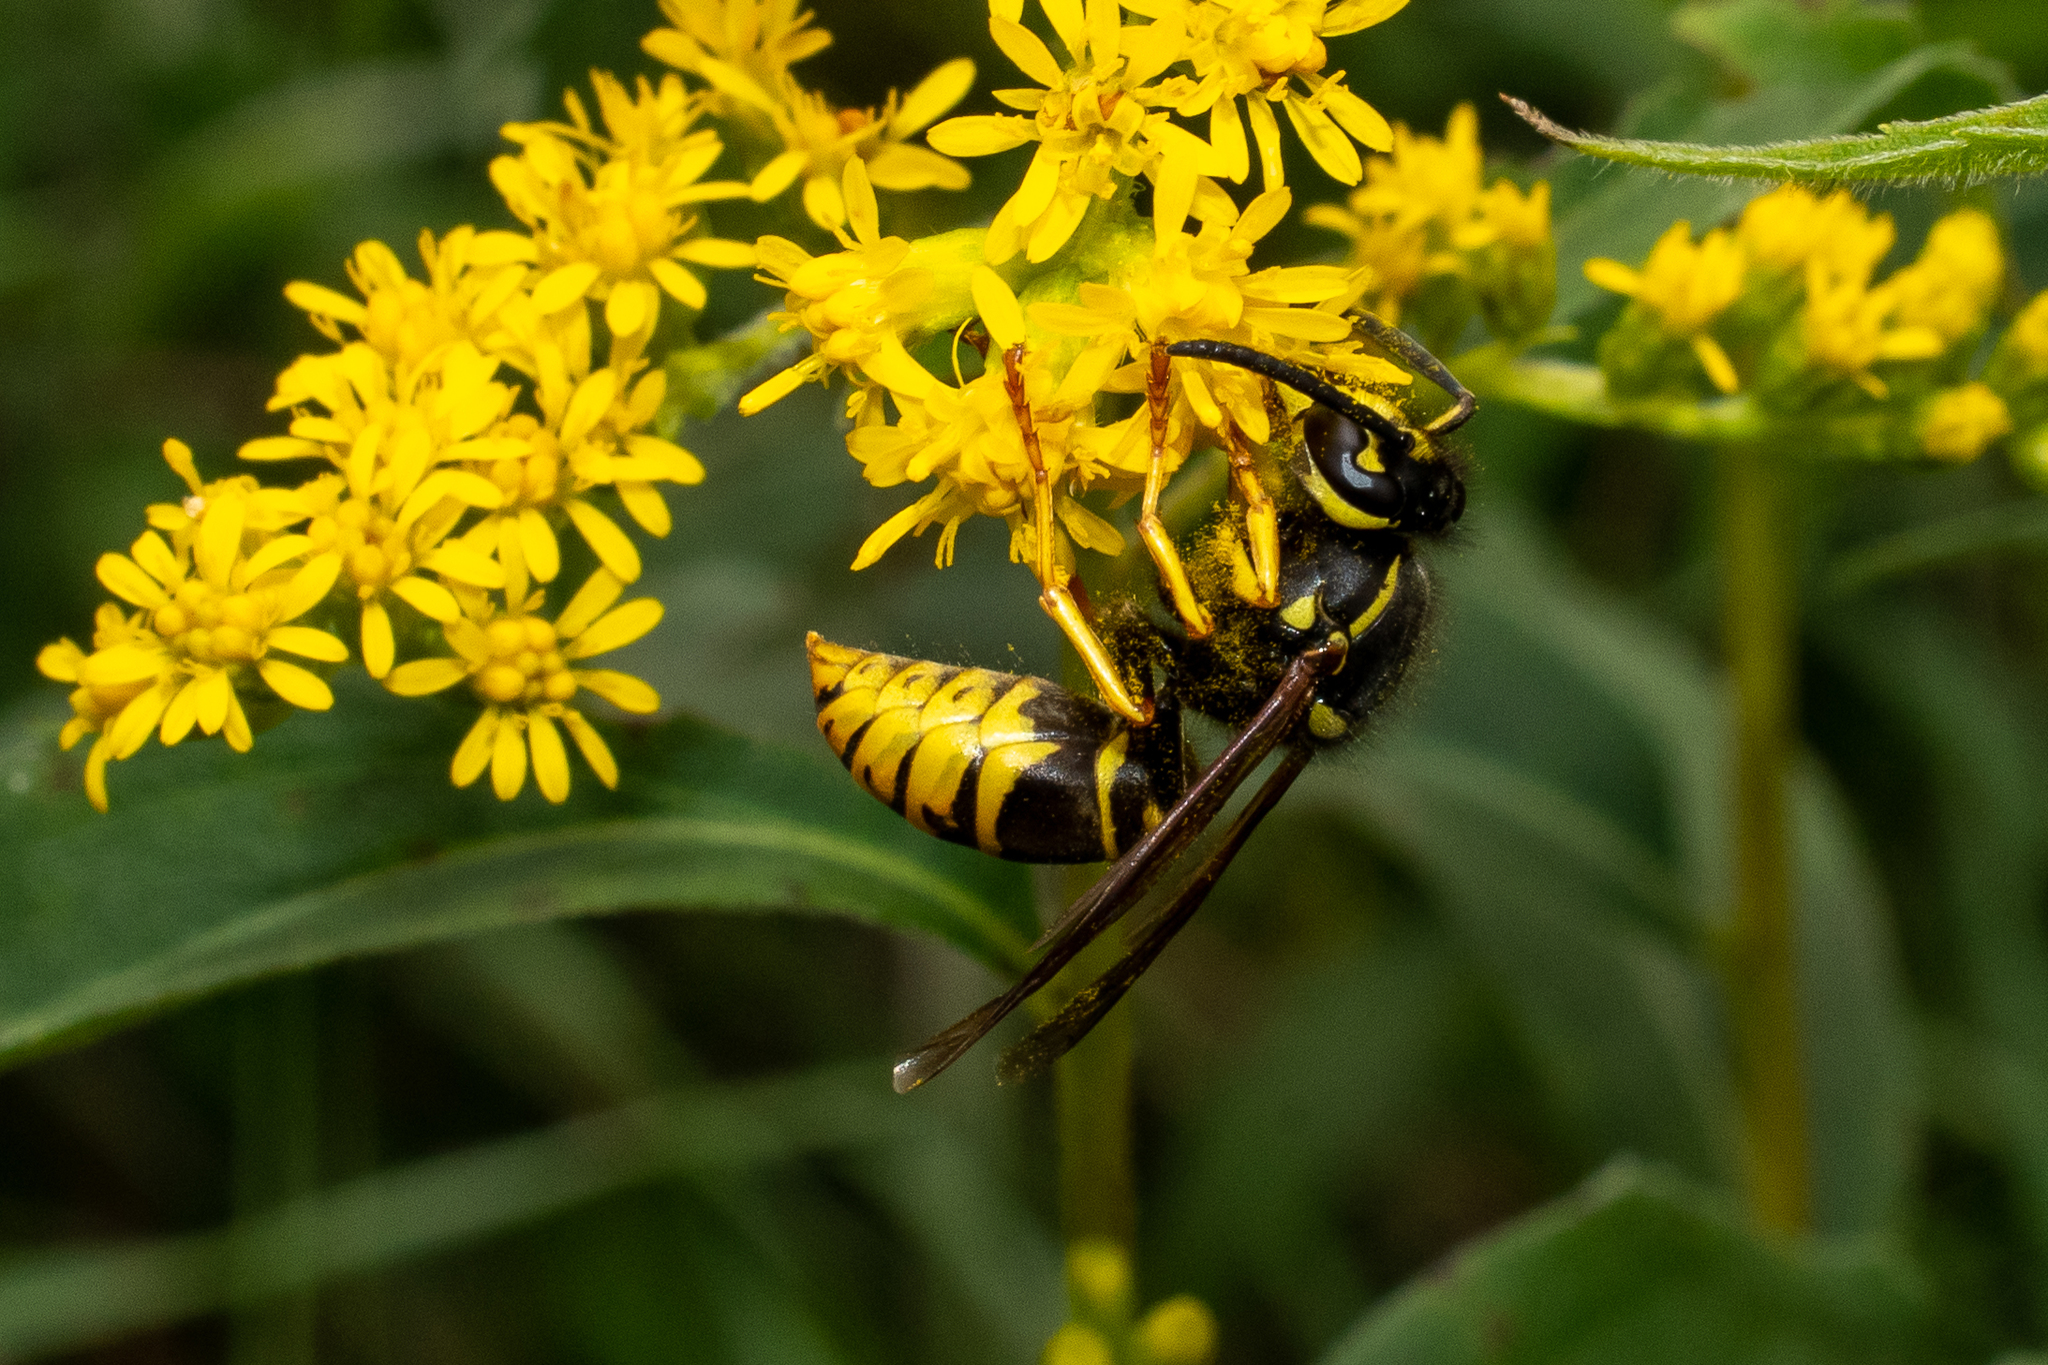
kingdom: Animalia
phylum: Arthropoda
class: Insecta
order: Hymenoptera
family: Vespidae
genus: Vespula
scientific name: Vespula vidua
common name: Widow yellowjacket
